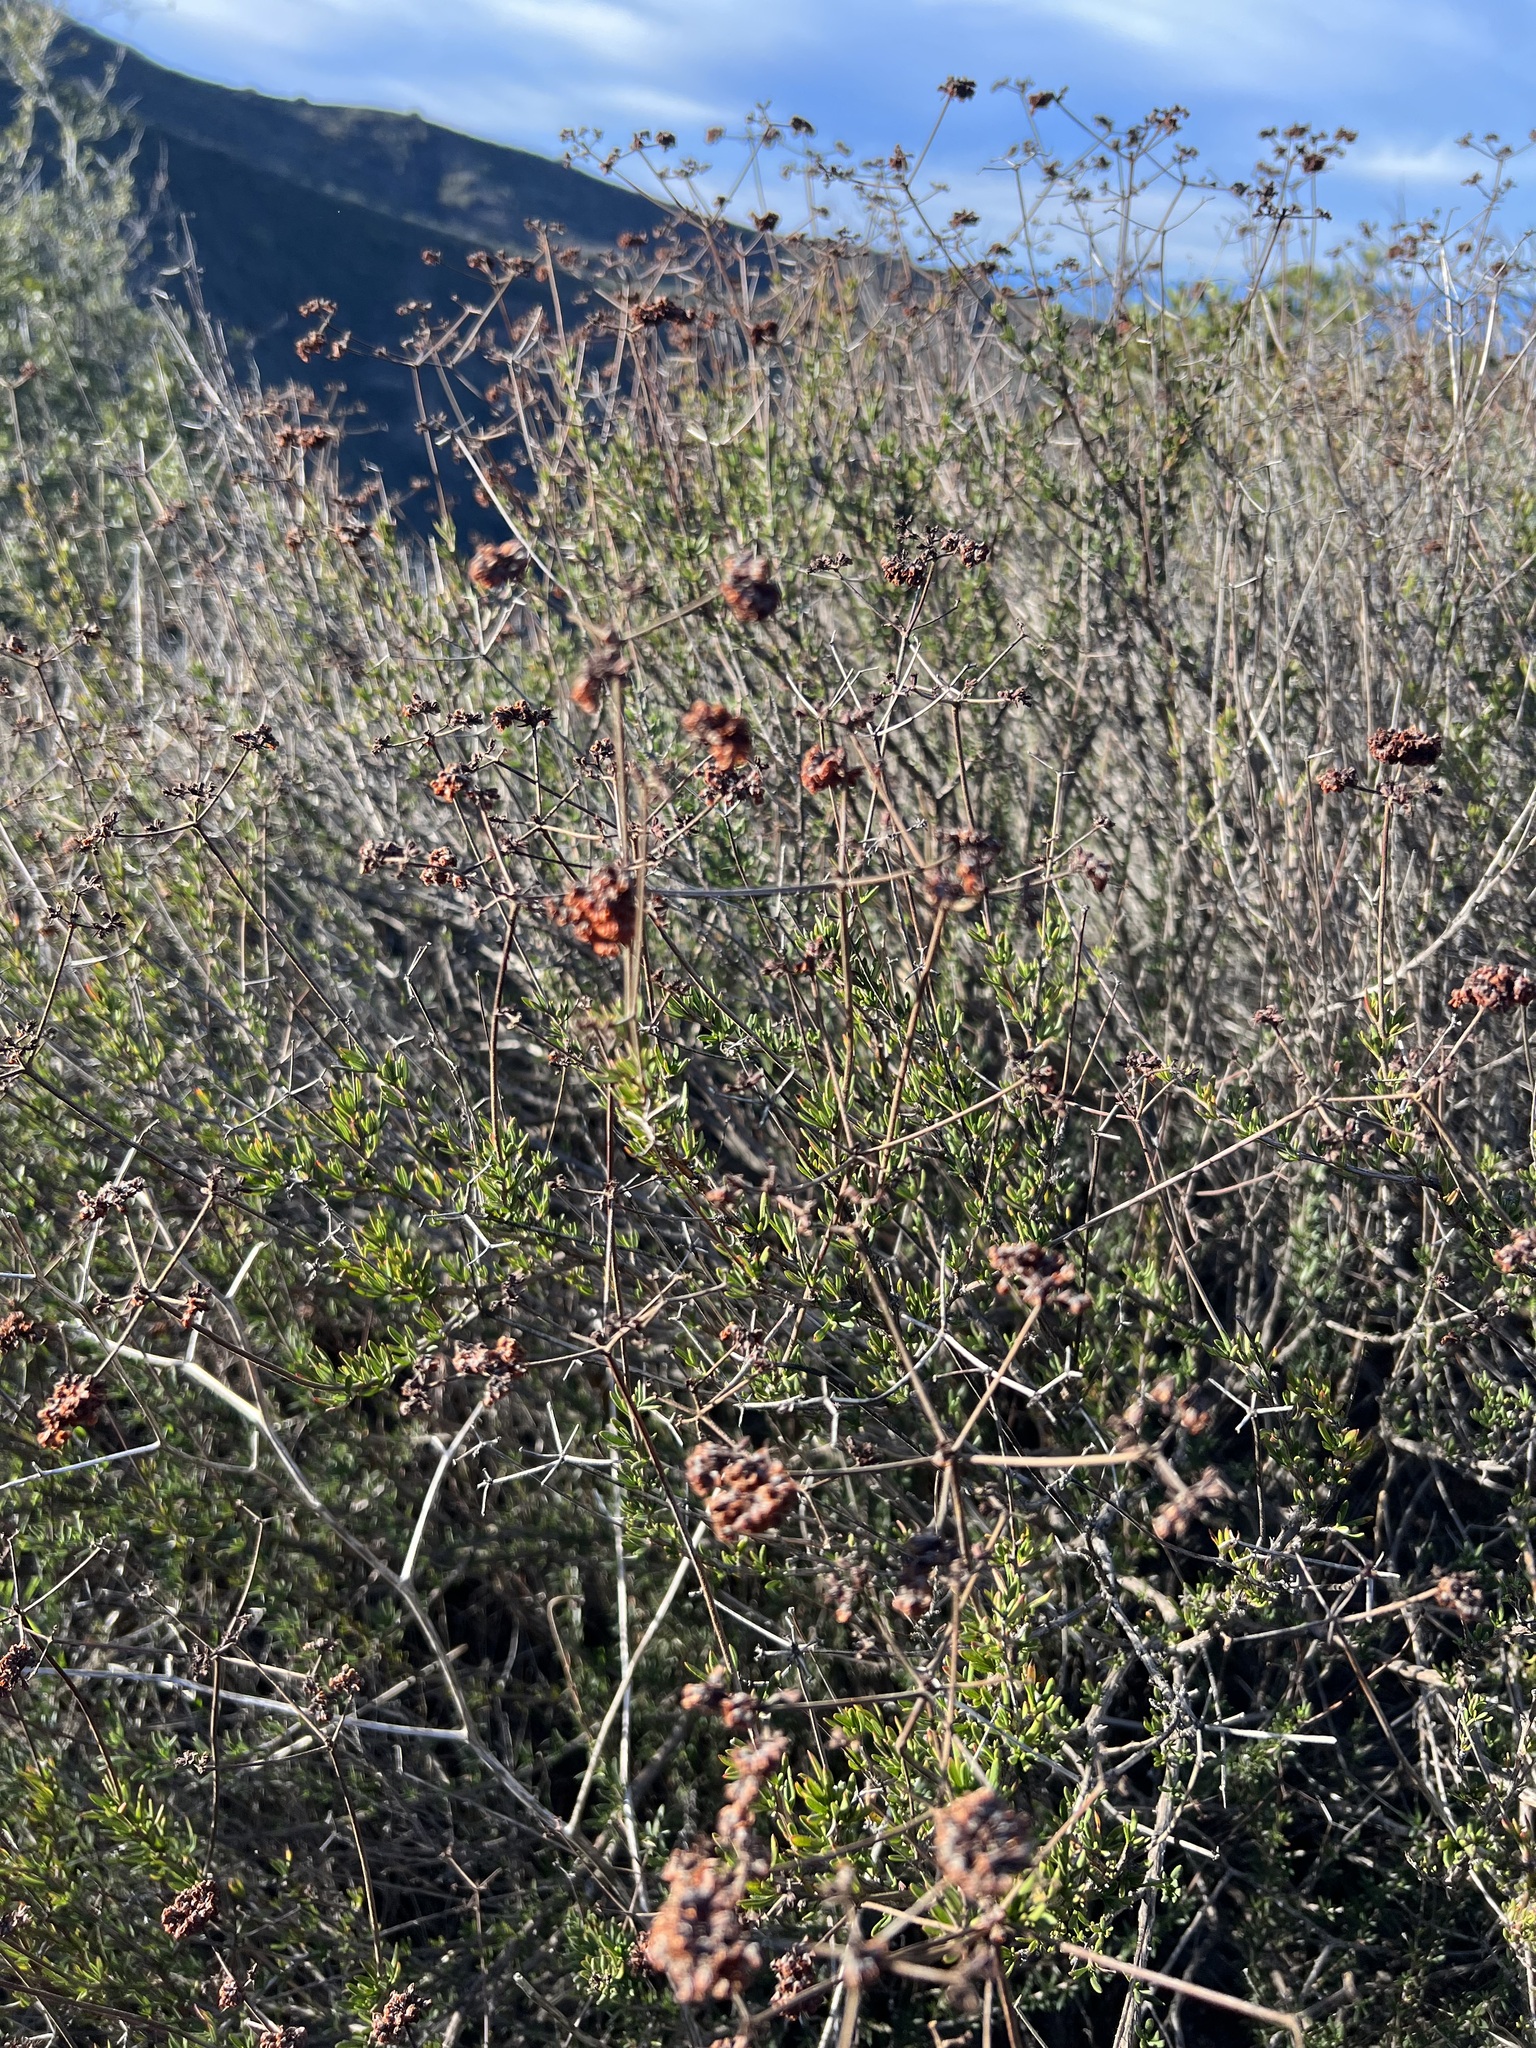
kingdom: Plantae
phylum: Tracheophyta
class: Magnoliopsida
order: Caryophyllales
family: Polygonaceae
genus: Eriogonum
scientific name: Eriogonum fasciculatum
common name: California wild buckwheat
